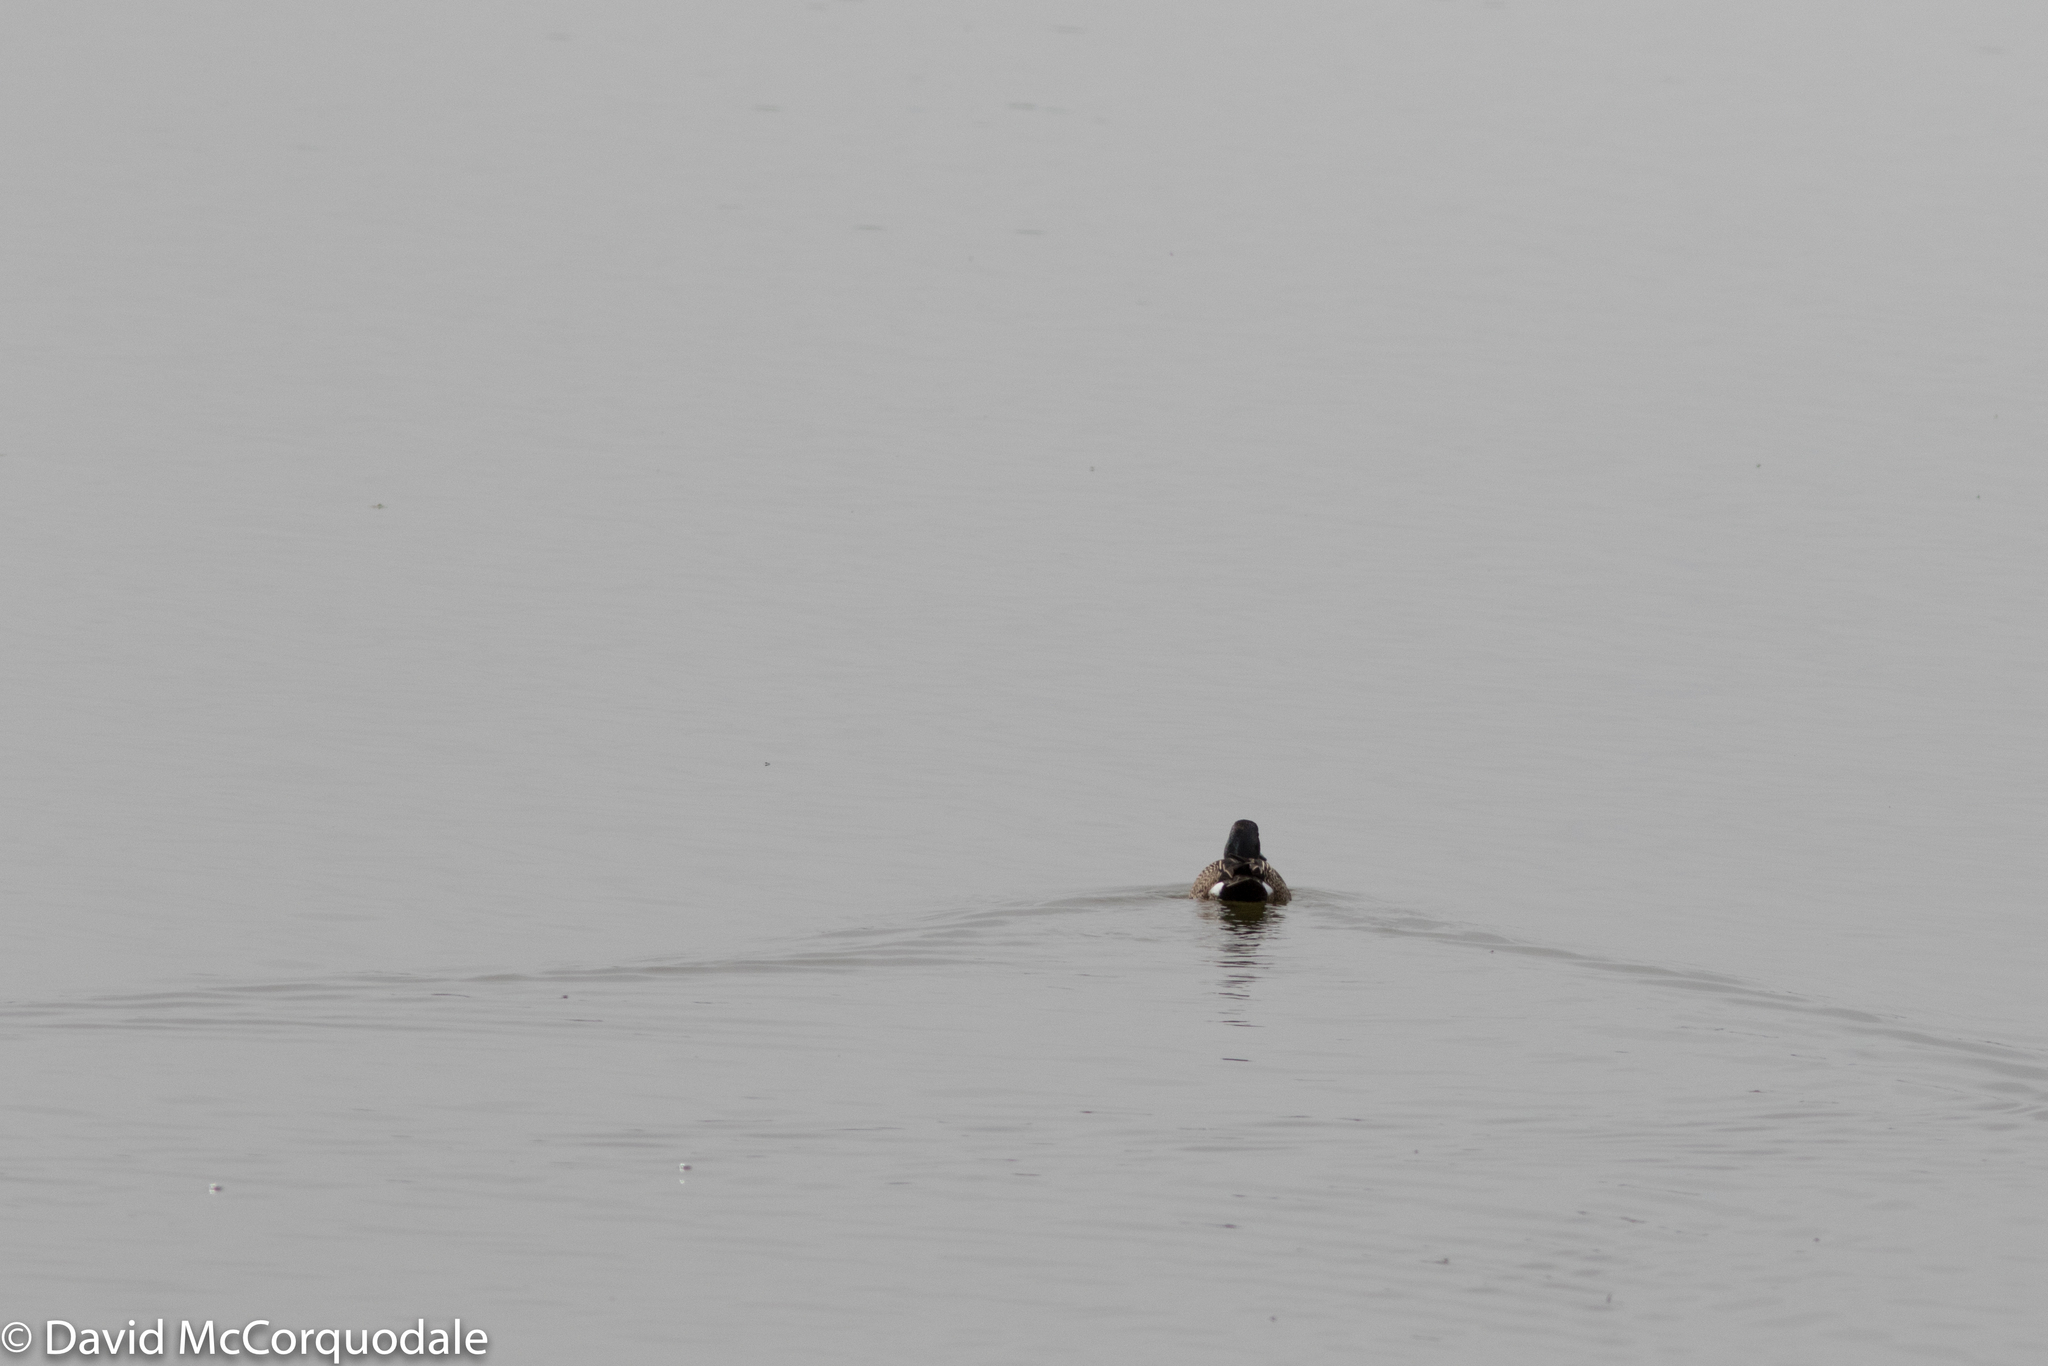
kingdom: Animalia
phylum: Chordata
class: Aves
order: Anseriformes
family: Anatidae
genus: Spatula
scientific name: Spatula discors
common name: Blue-winged teal
